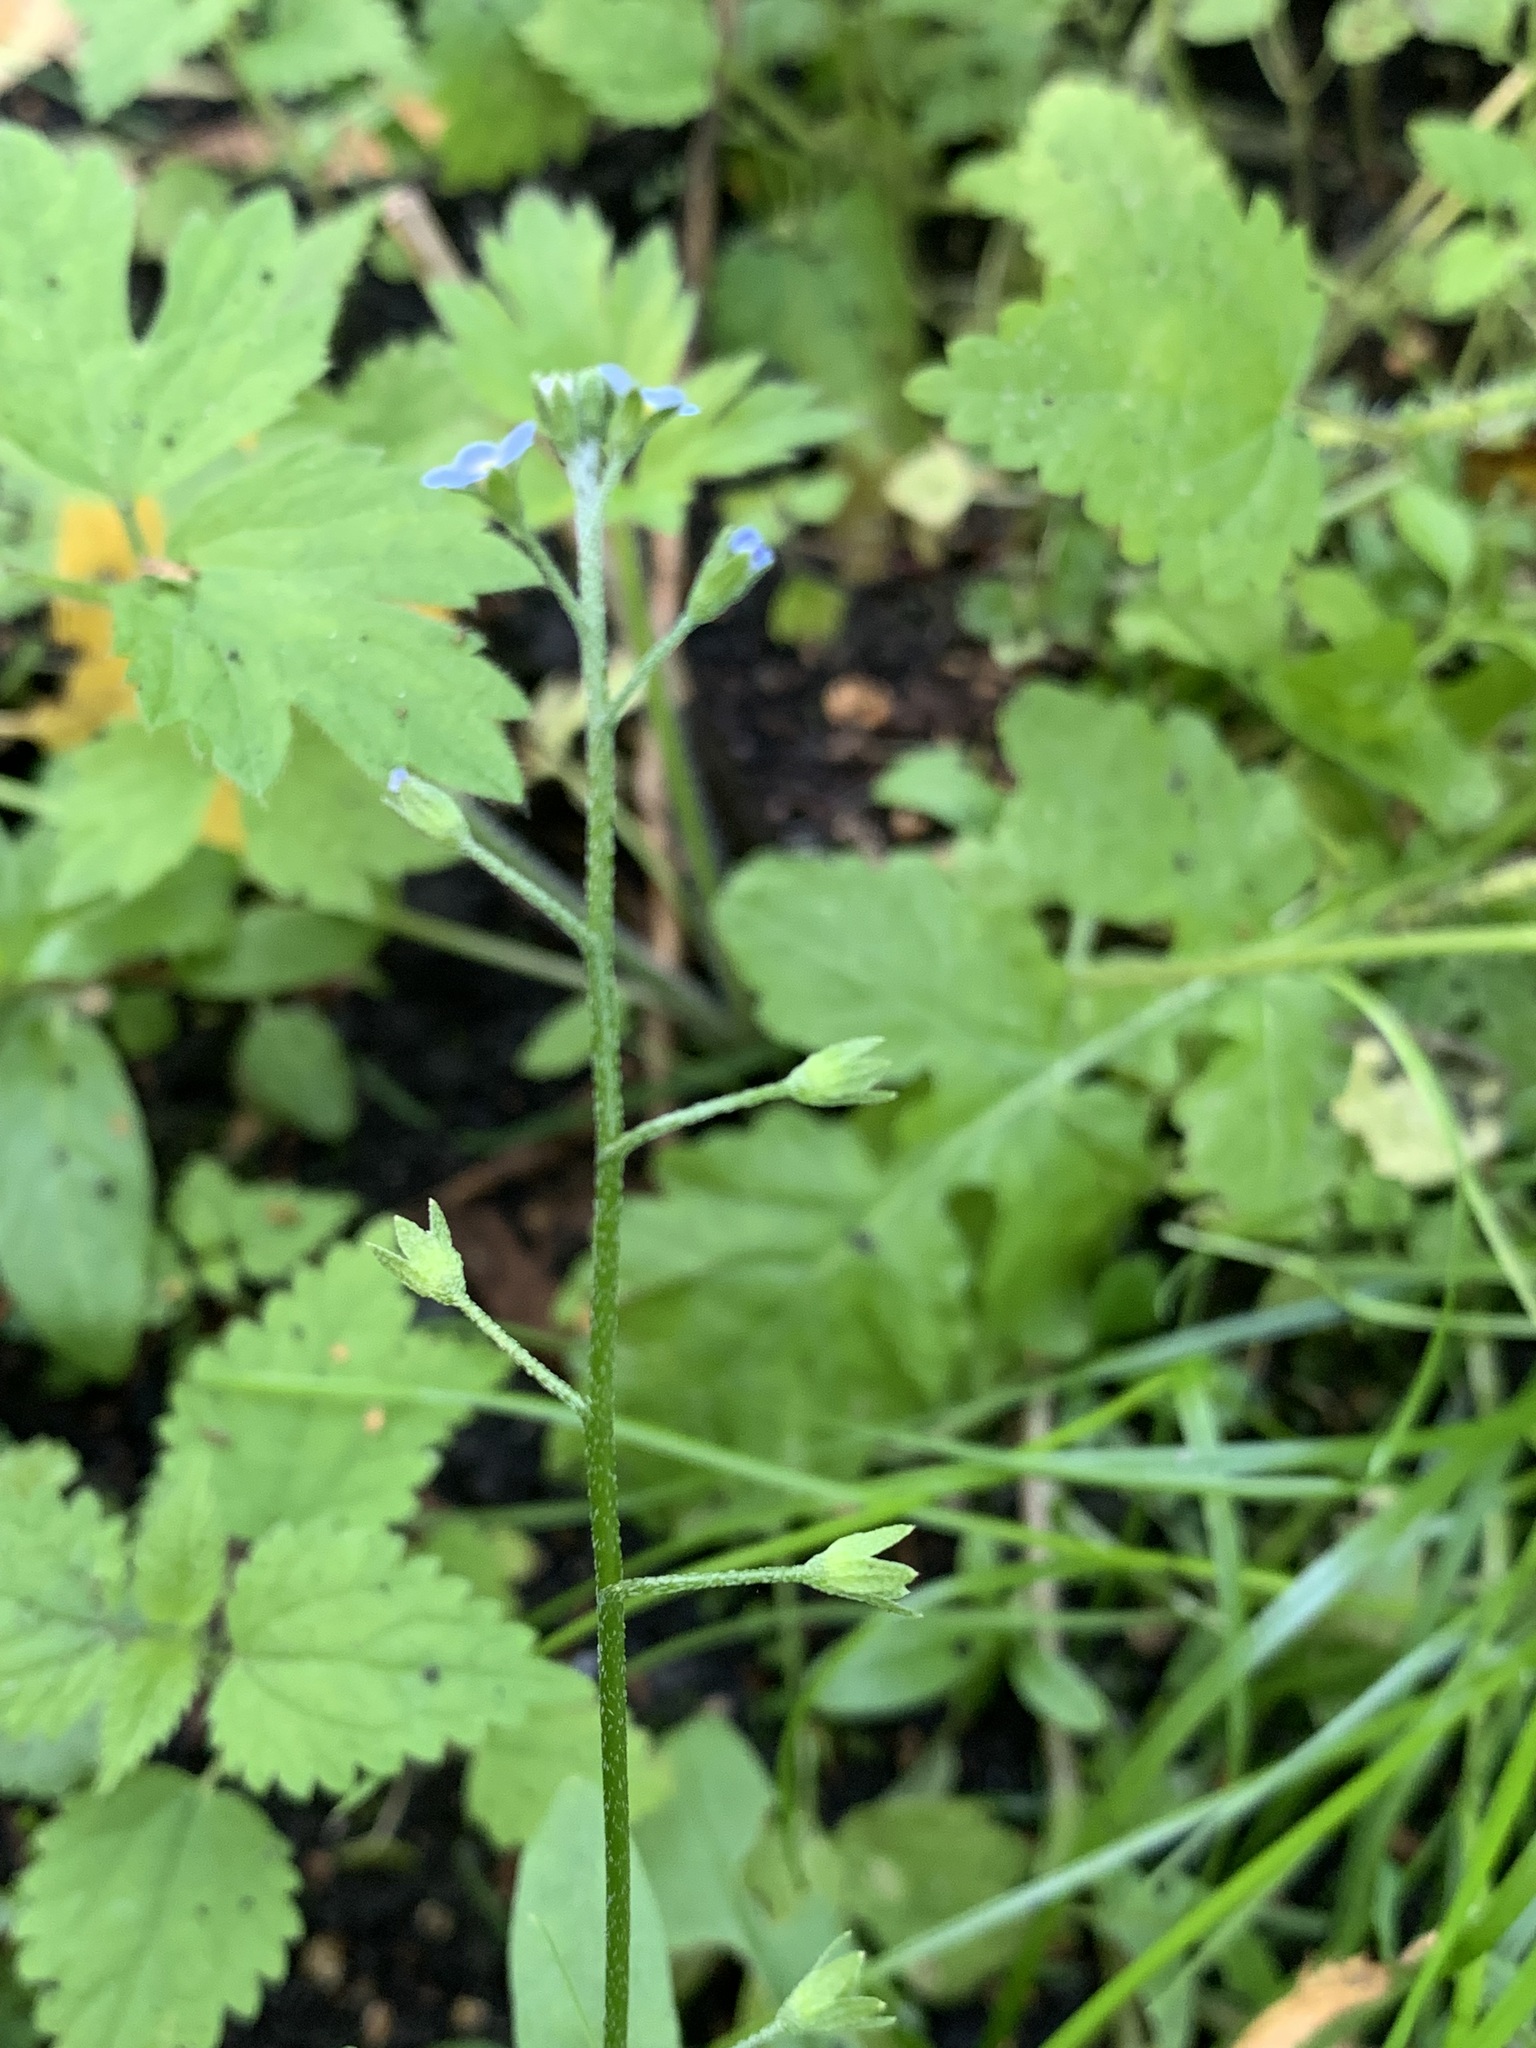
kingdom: Plantae
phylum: Tracheophyta
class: Magnoliopsida
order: Boraginales
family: Boraginaceae
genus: Myosotis
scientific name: Myosotis laxa
